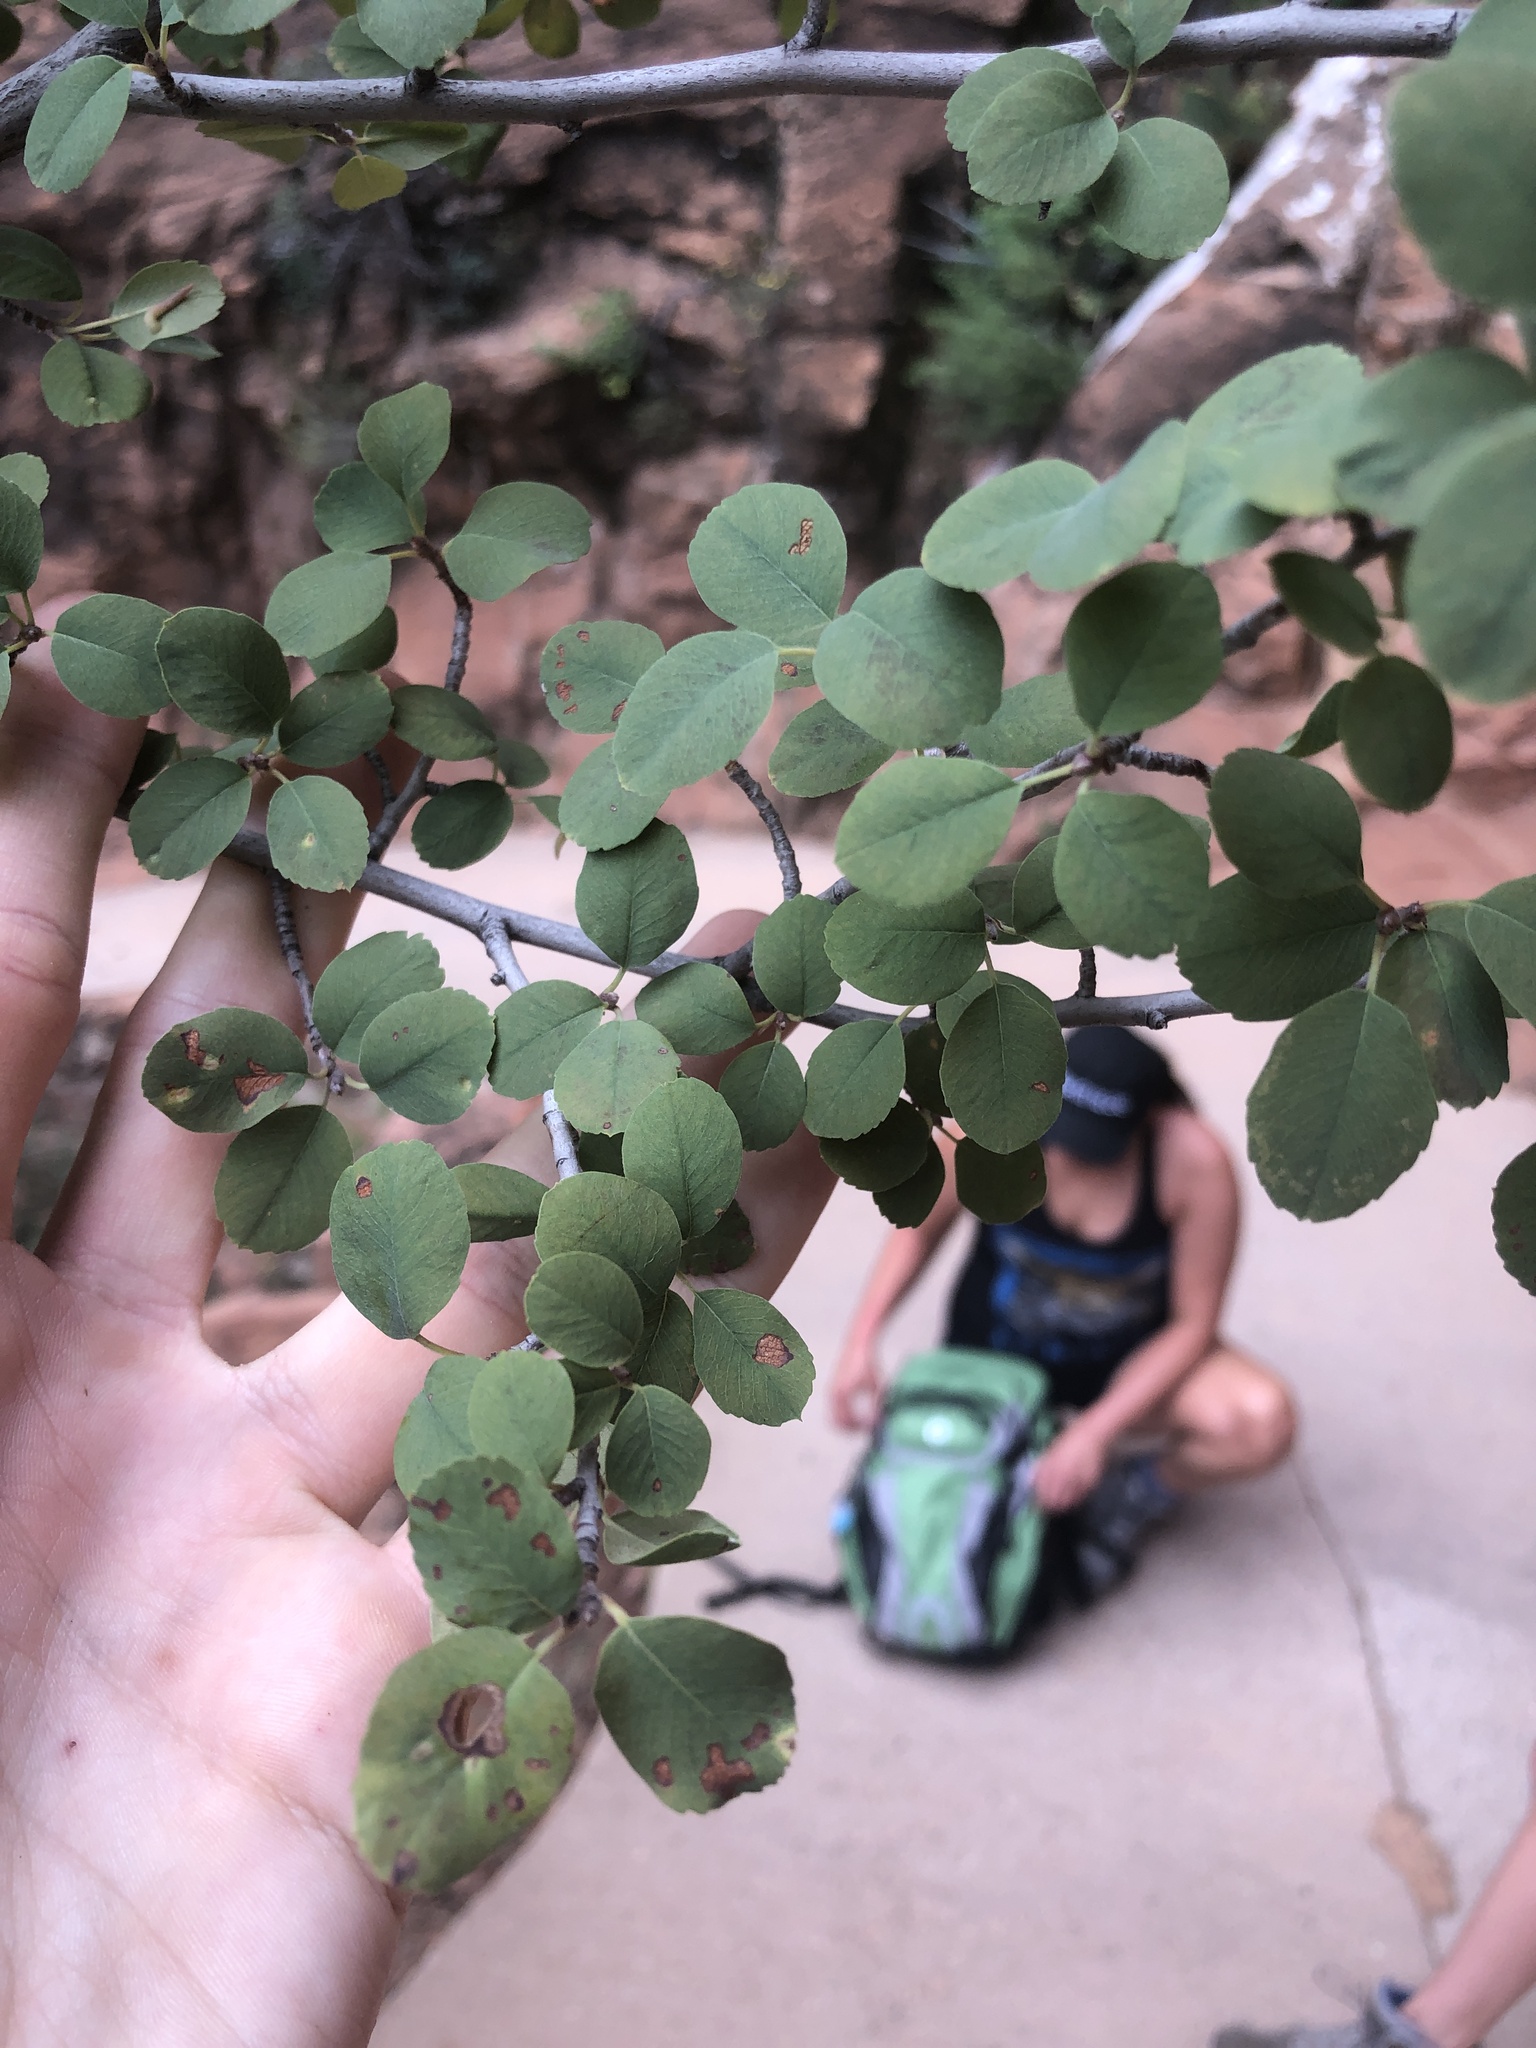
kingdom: Plantae
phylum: Tracheophyta
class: Magnoliopsida
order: Rosales
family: Rosaceae
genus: Amelanchier
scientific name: Amelanchier utahensis
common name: Utah serviceberry
